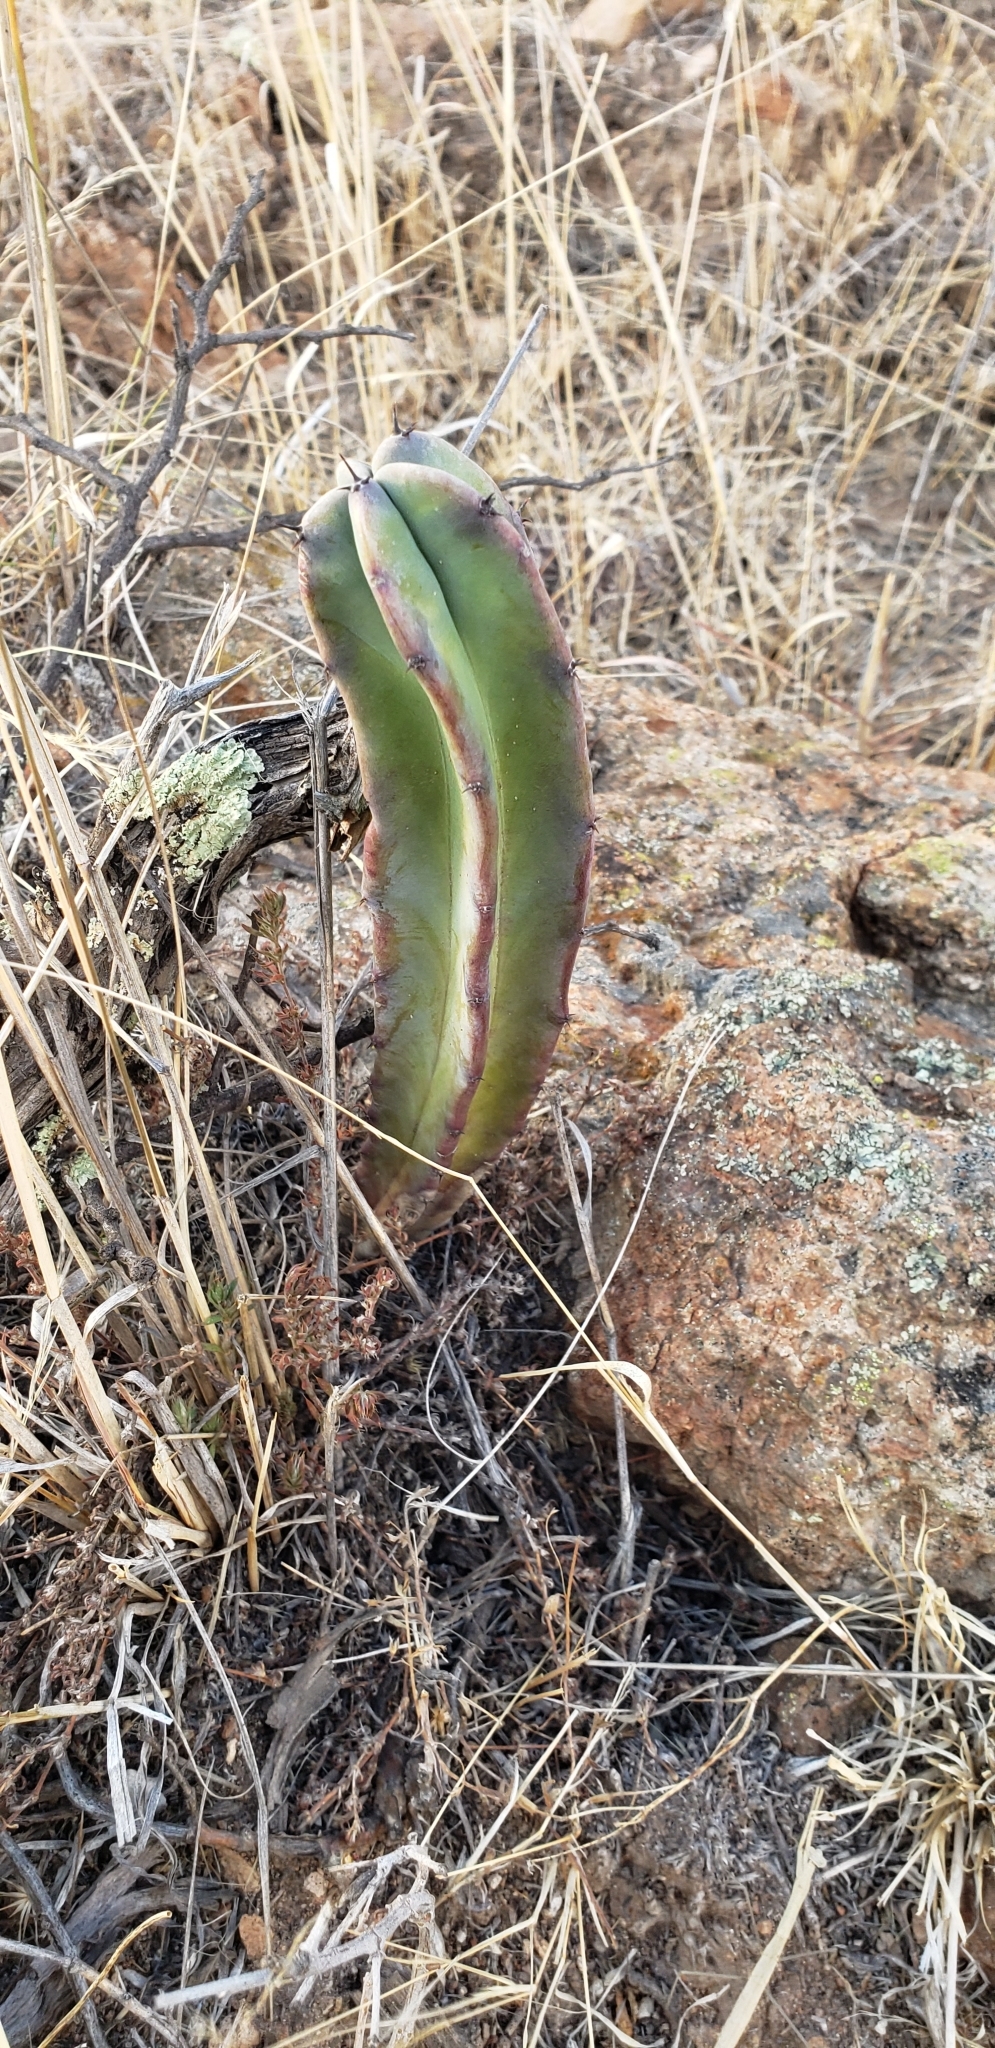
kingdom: Plantae
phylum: Tracheophyta
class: Magnoliopsida
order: Caryophyllales
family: Cactaceae
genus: Myrtillocactus
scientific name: Myrtillocactus geometrizans
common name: Bilberry cactus
